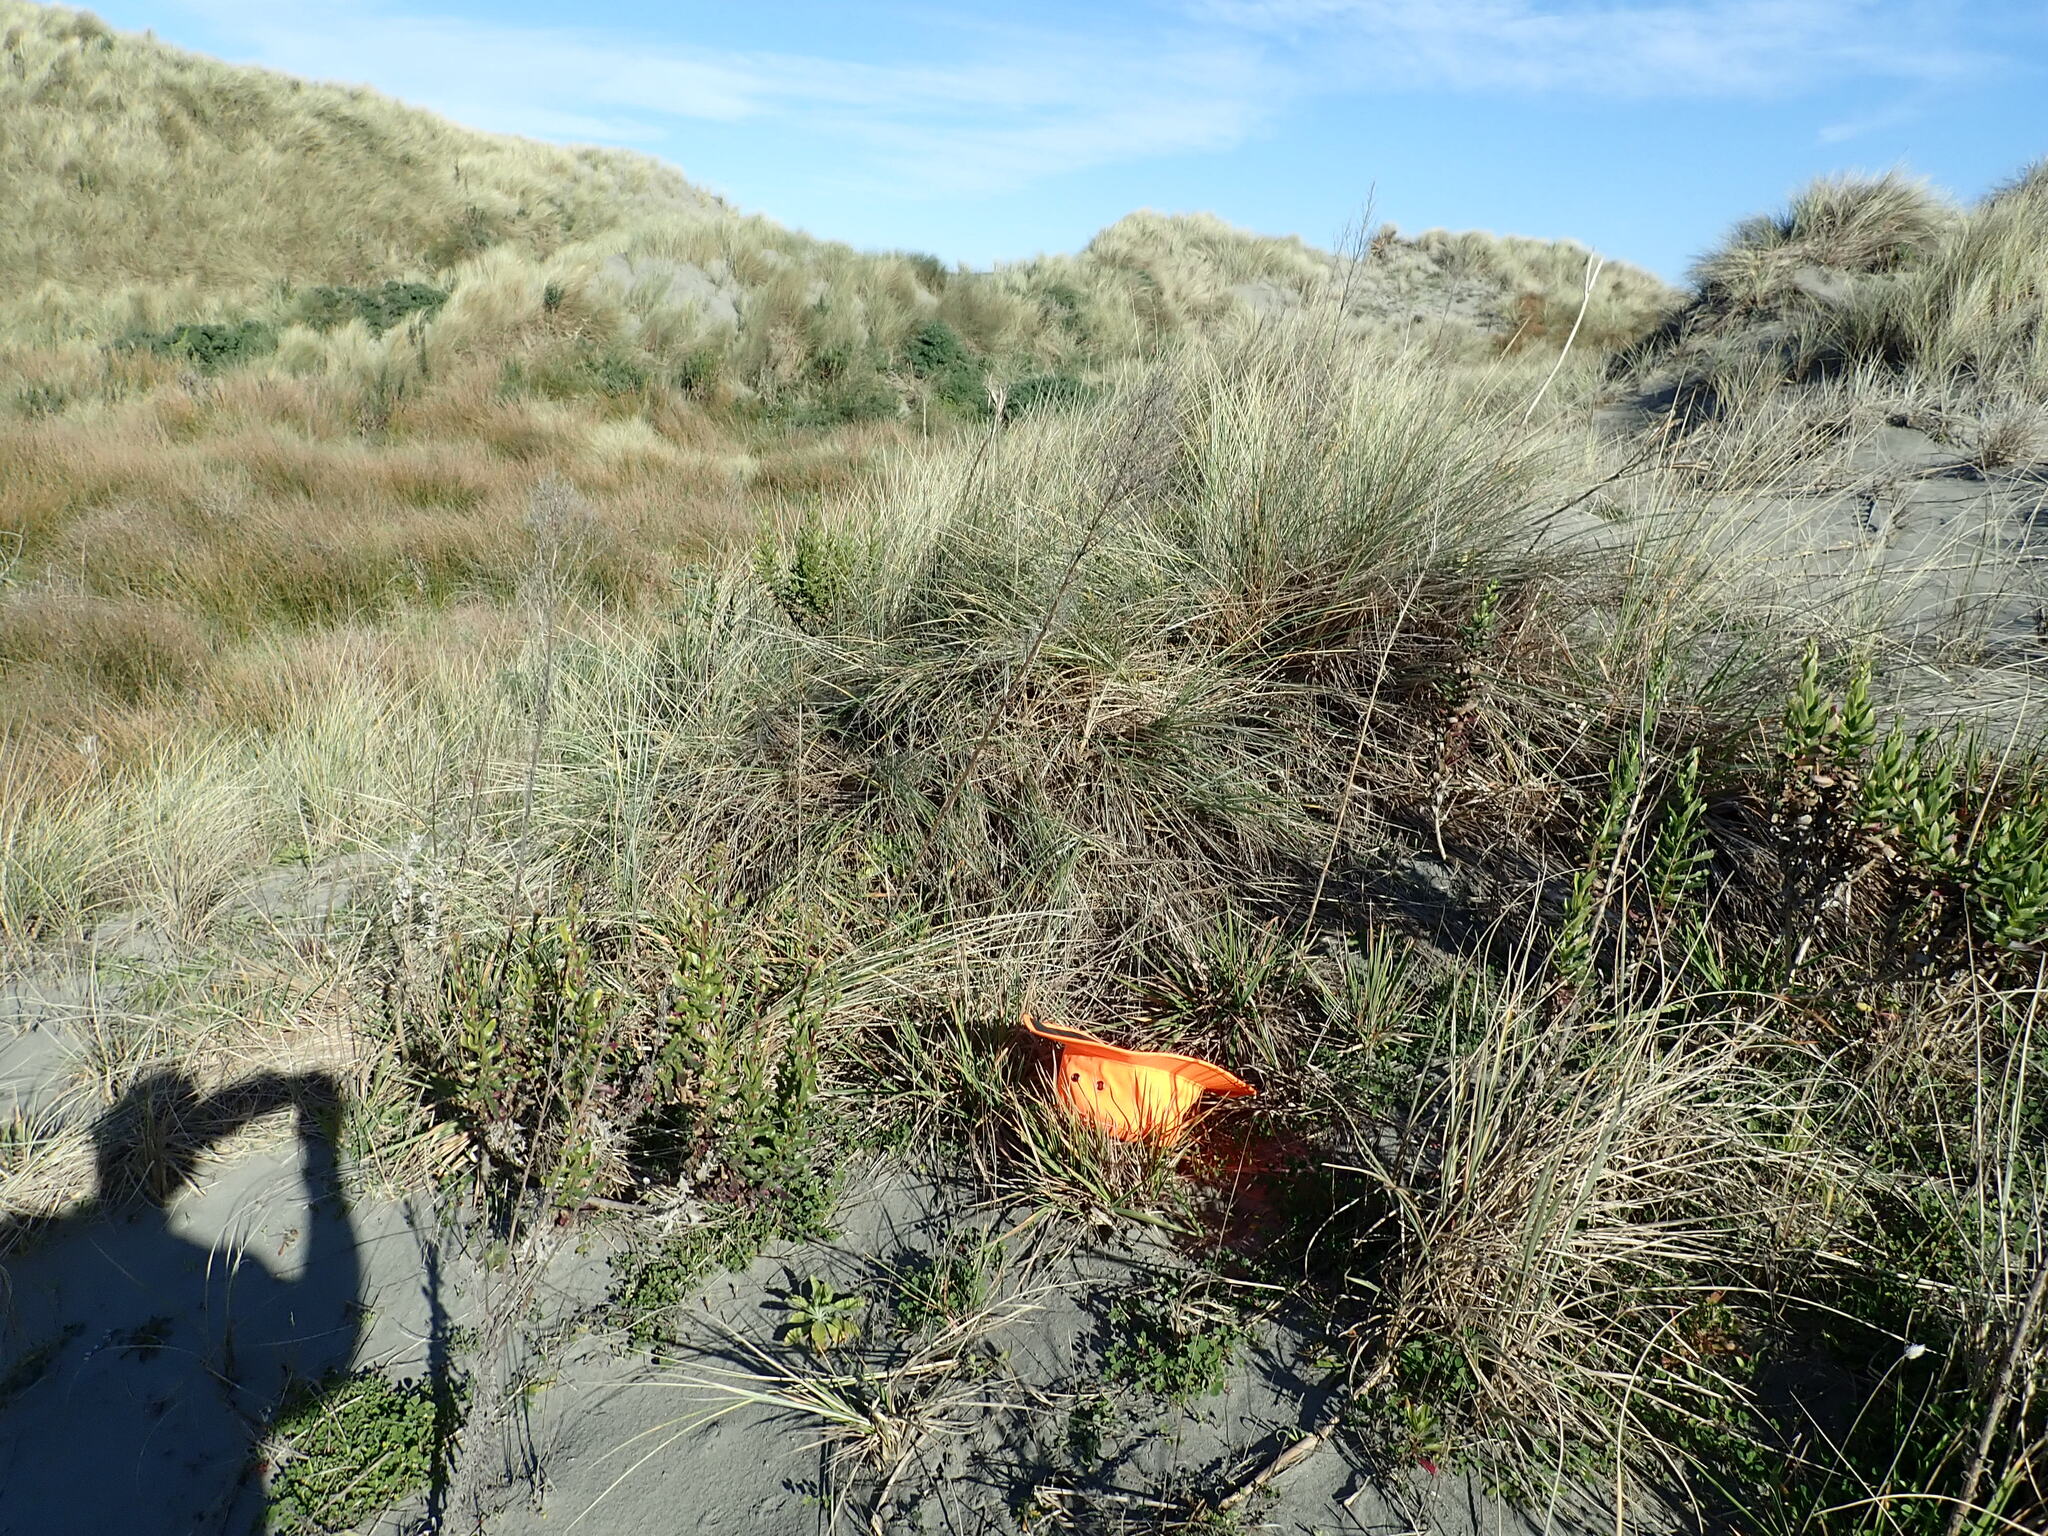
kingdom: Plantae
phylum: Tracheophyta
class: Liliopsida
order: Poales
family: Poaceae
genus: Lachnagrostis
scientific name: Lachnagrostis billardierei
